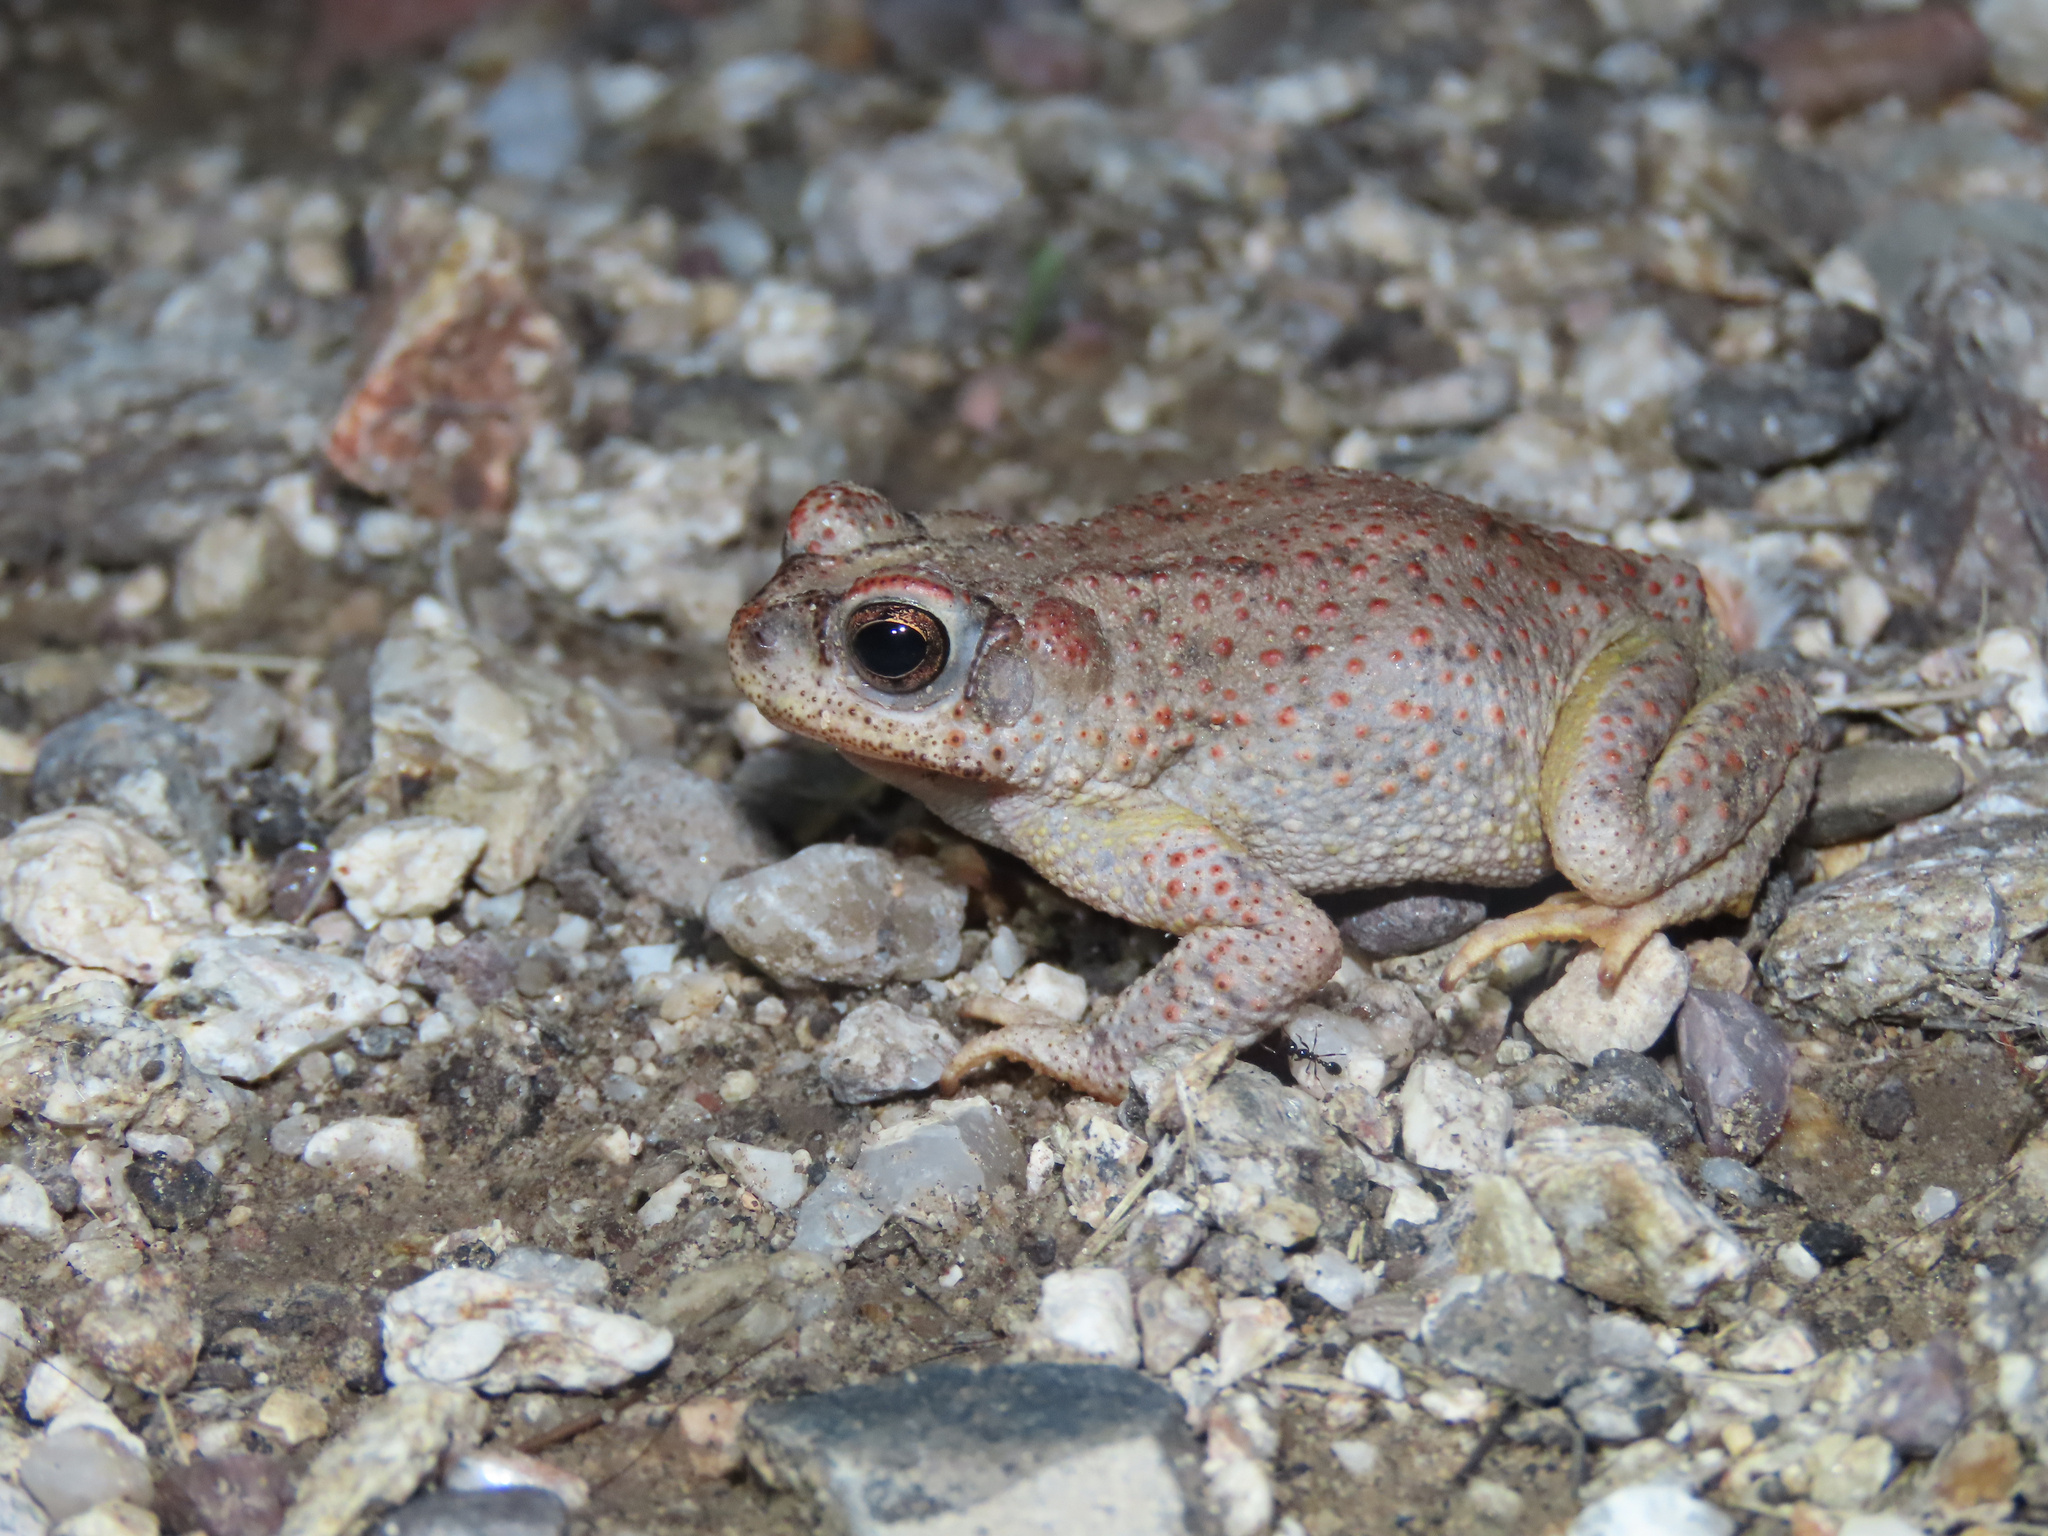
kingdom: Animalia
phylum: Chordata
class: Amphibia
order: Anura
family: Bufonidae
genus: Anaxyrus
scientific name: Anaxyrus punctatus
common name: Red-spotted toad
